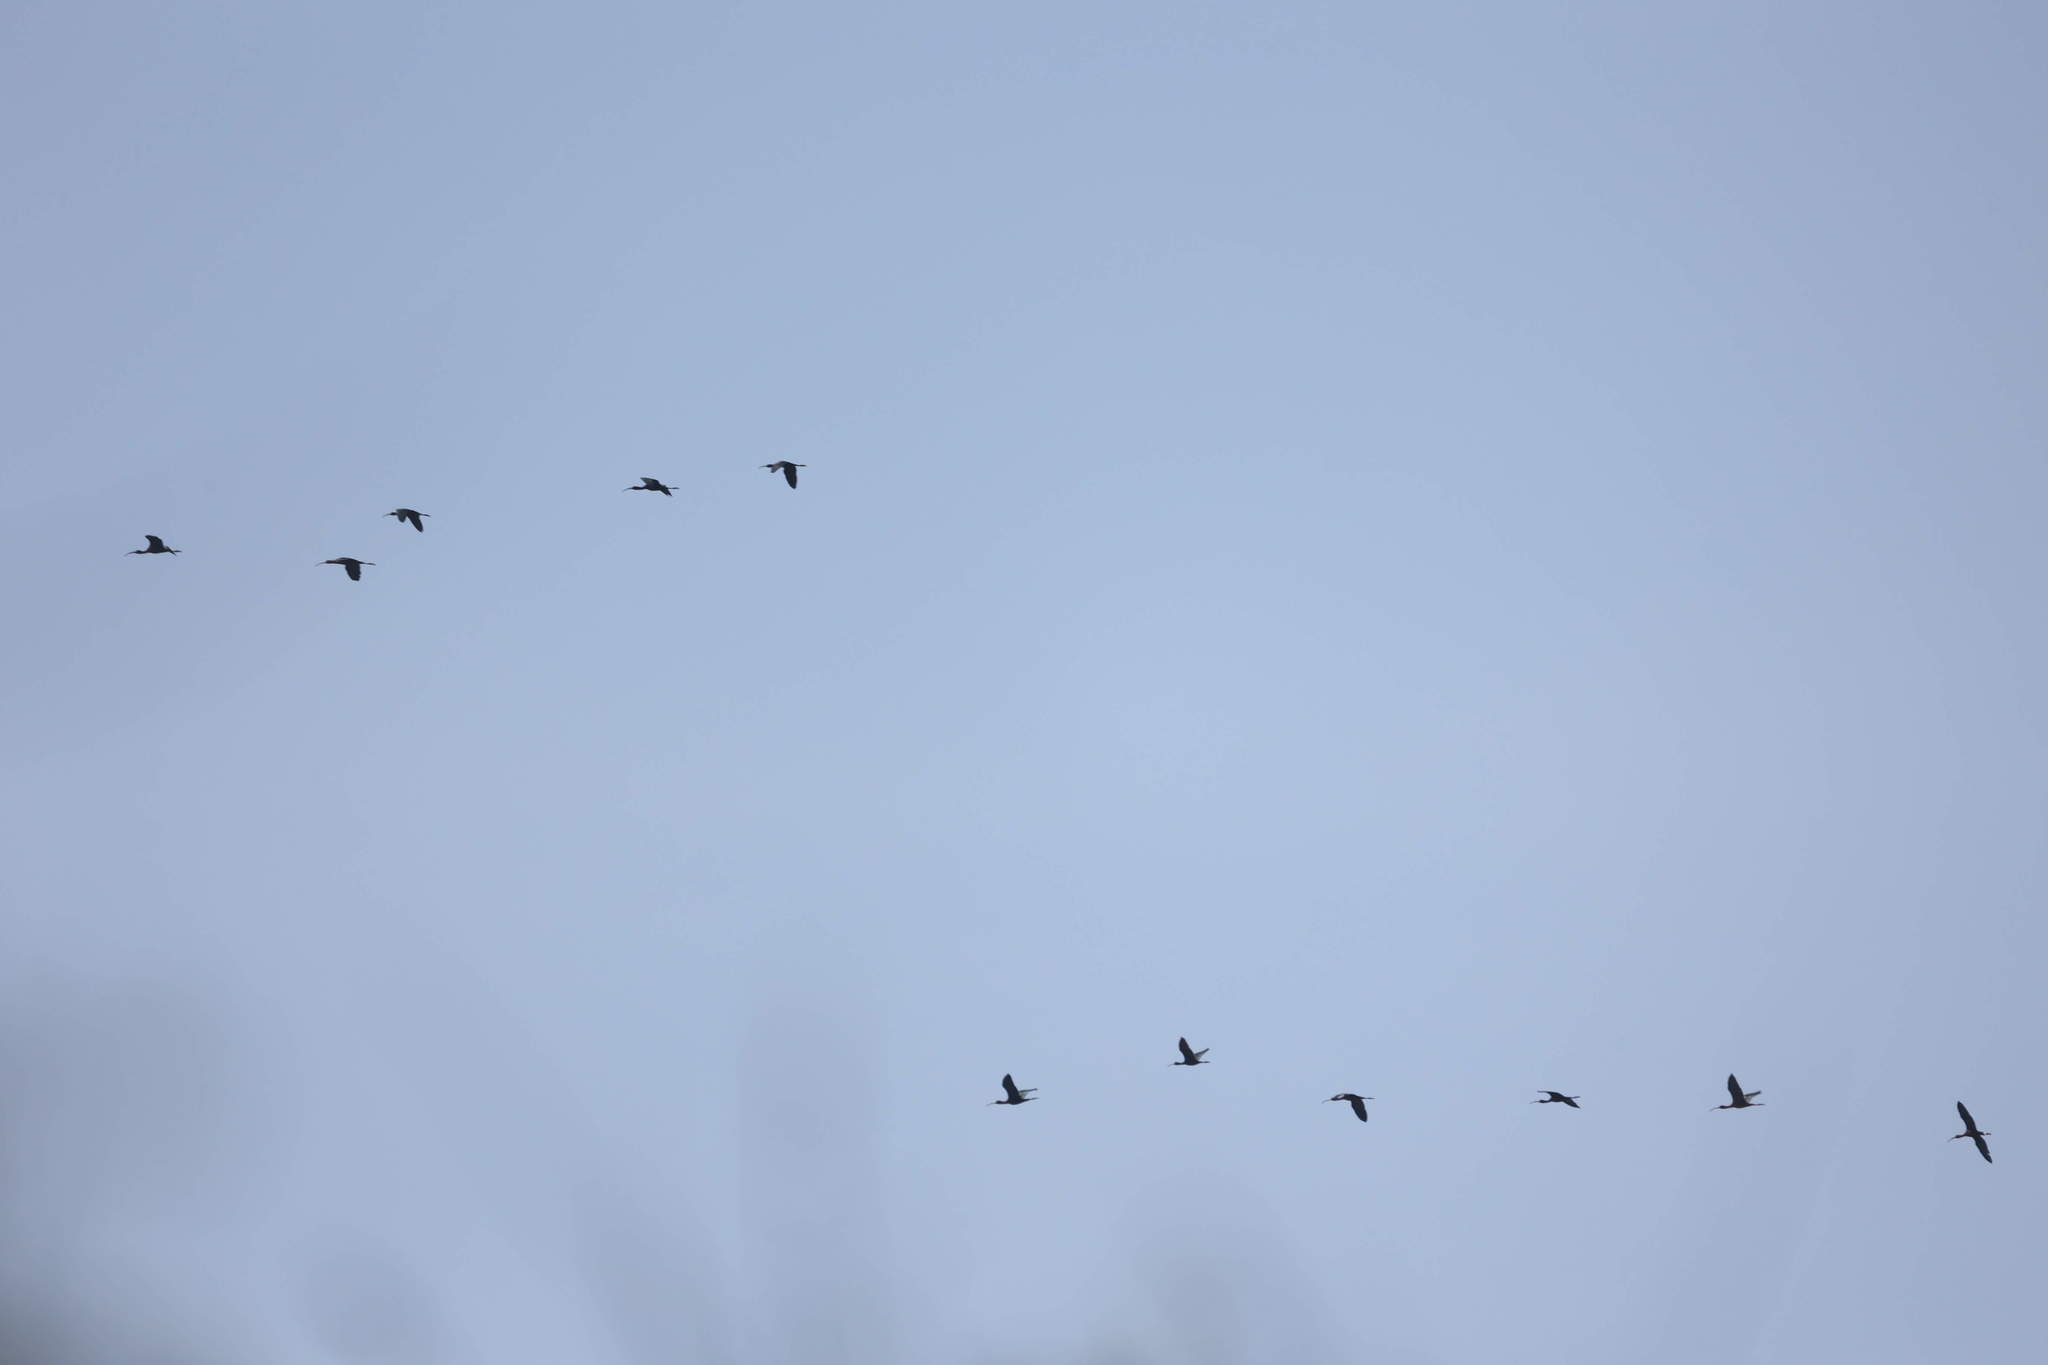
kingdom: Animalia
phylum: Chordata
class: Aves
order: Pelecaniformes
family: Threskiornithidae
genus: Plegadis
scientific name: Plegadis falcinellus
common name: Glossy ibis
